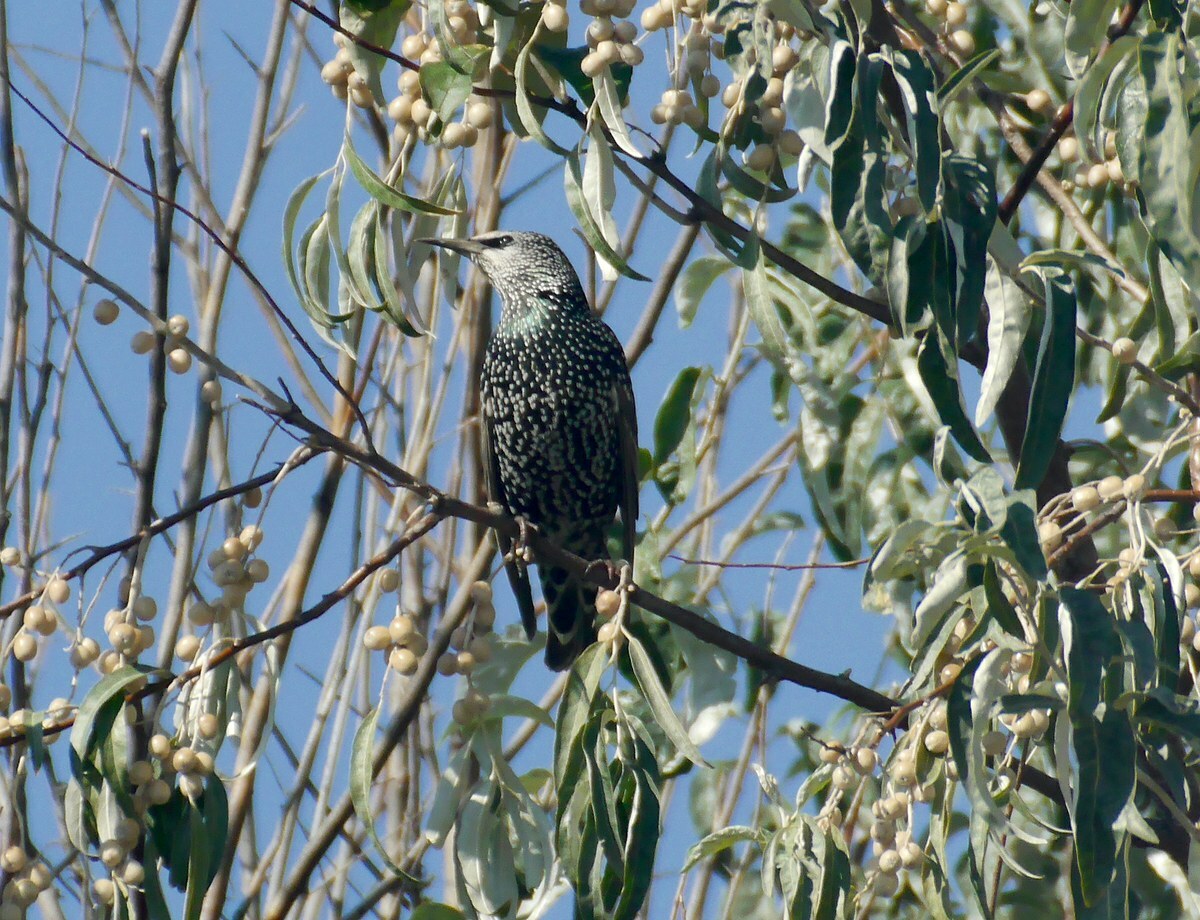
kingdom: Animalia
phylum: Chordata
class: Aves
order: Passeriformes
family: Sturnidae
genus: Sturnus
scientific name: Sturnus vulgaris
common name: Common starling
